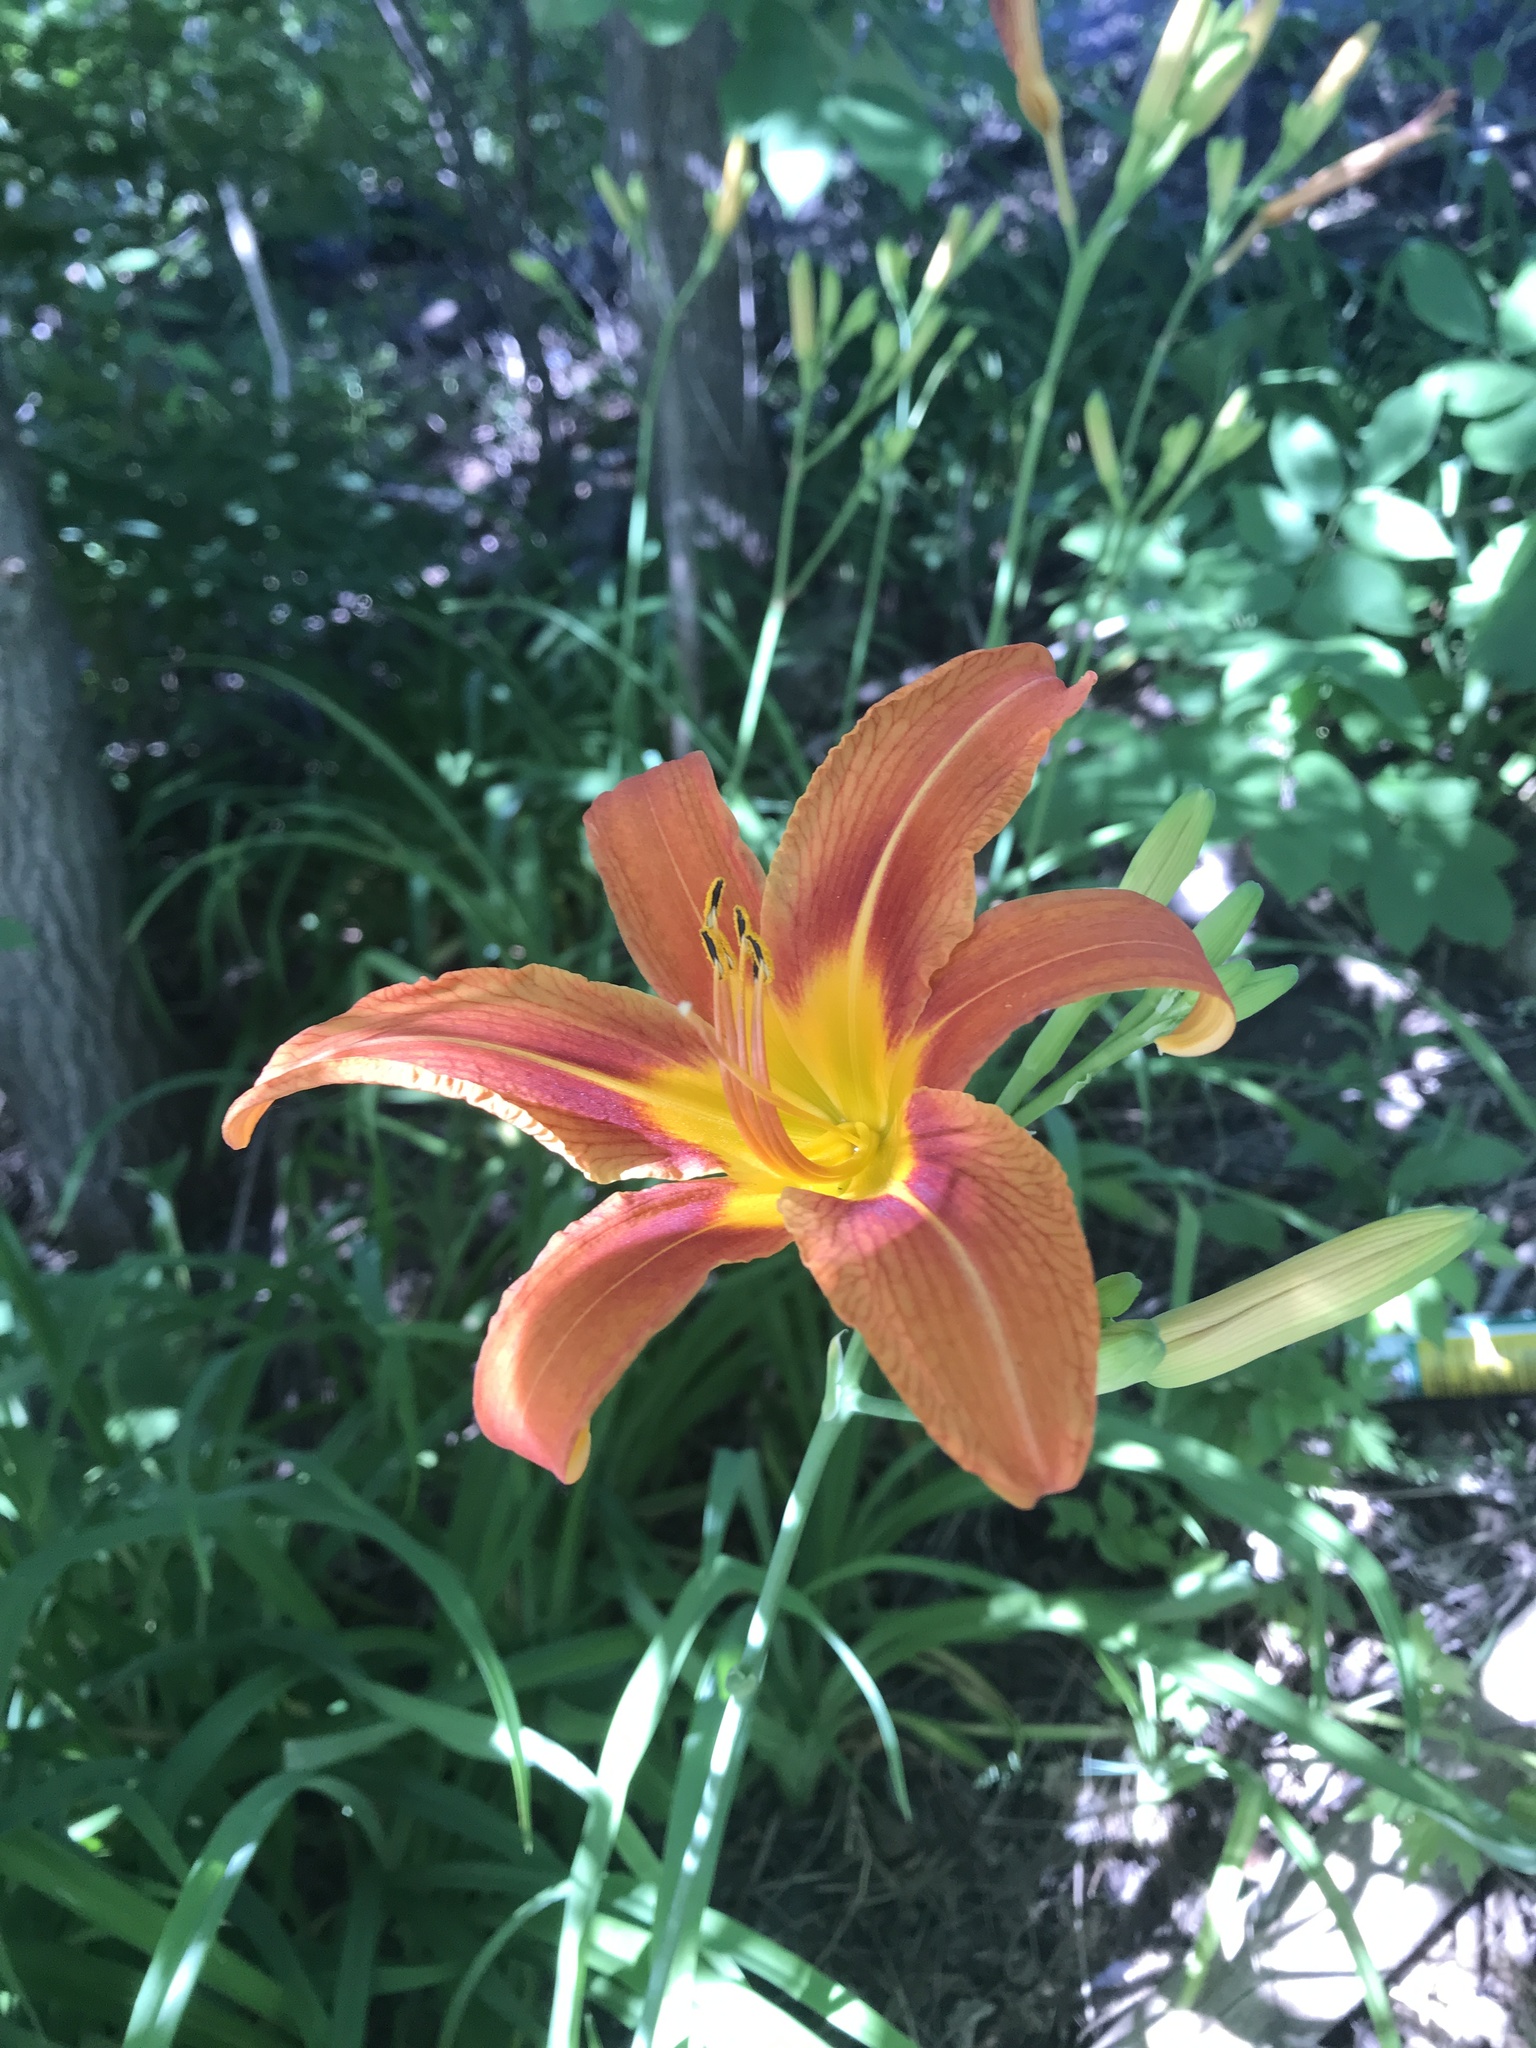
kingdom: Plantae
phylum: Tracheophyta
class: Liliopsida
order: Asparagales
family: Asphodelaceae
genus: Hemerocallis
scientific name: Hemerocallis fulva
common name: Orange day-lily
